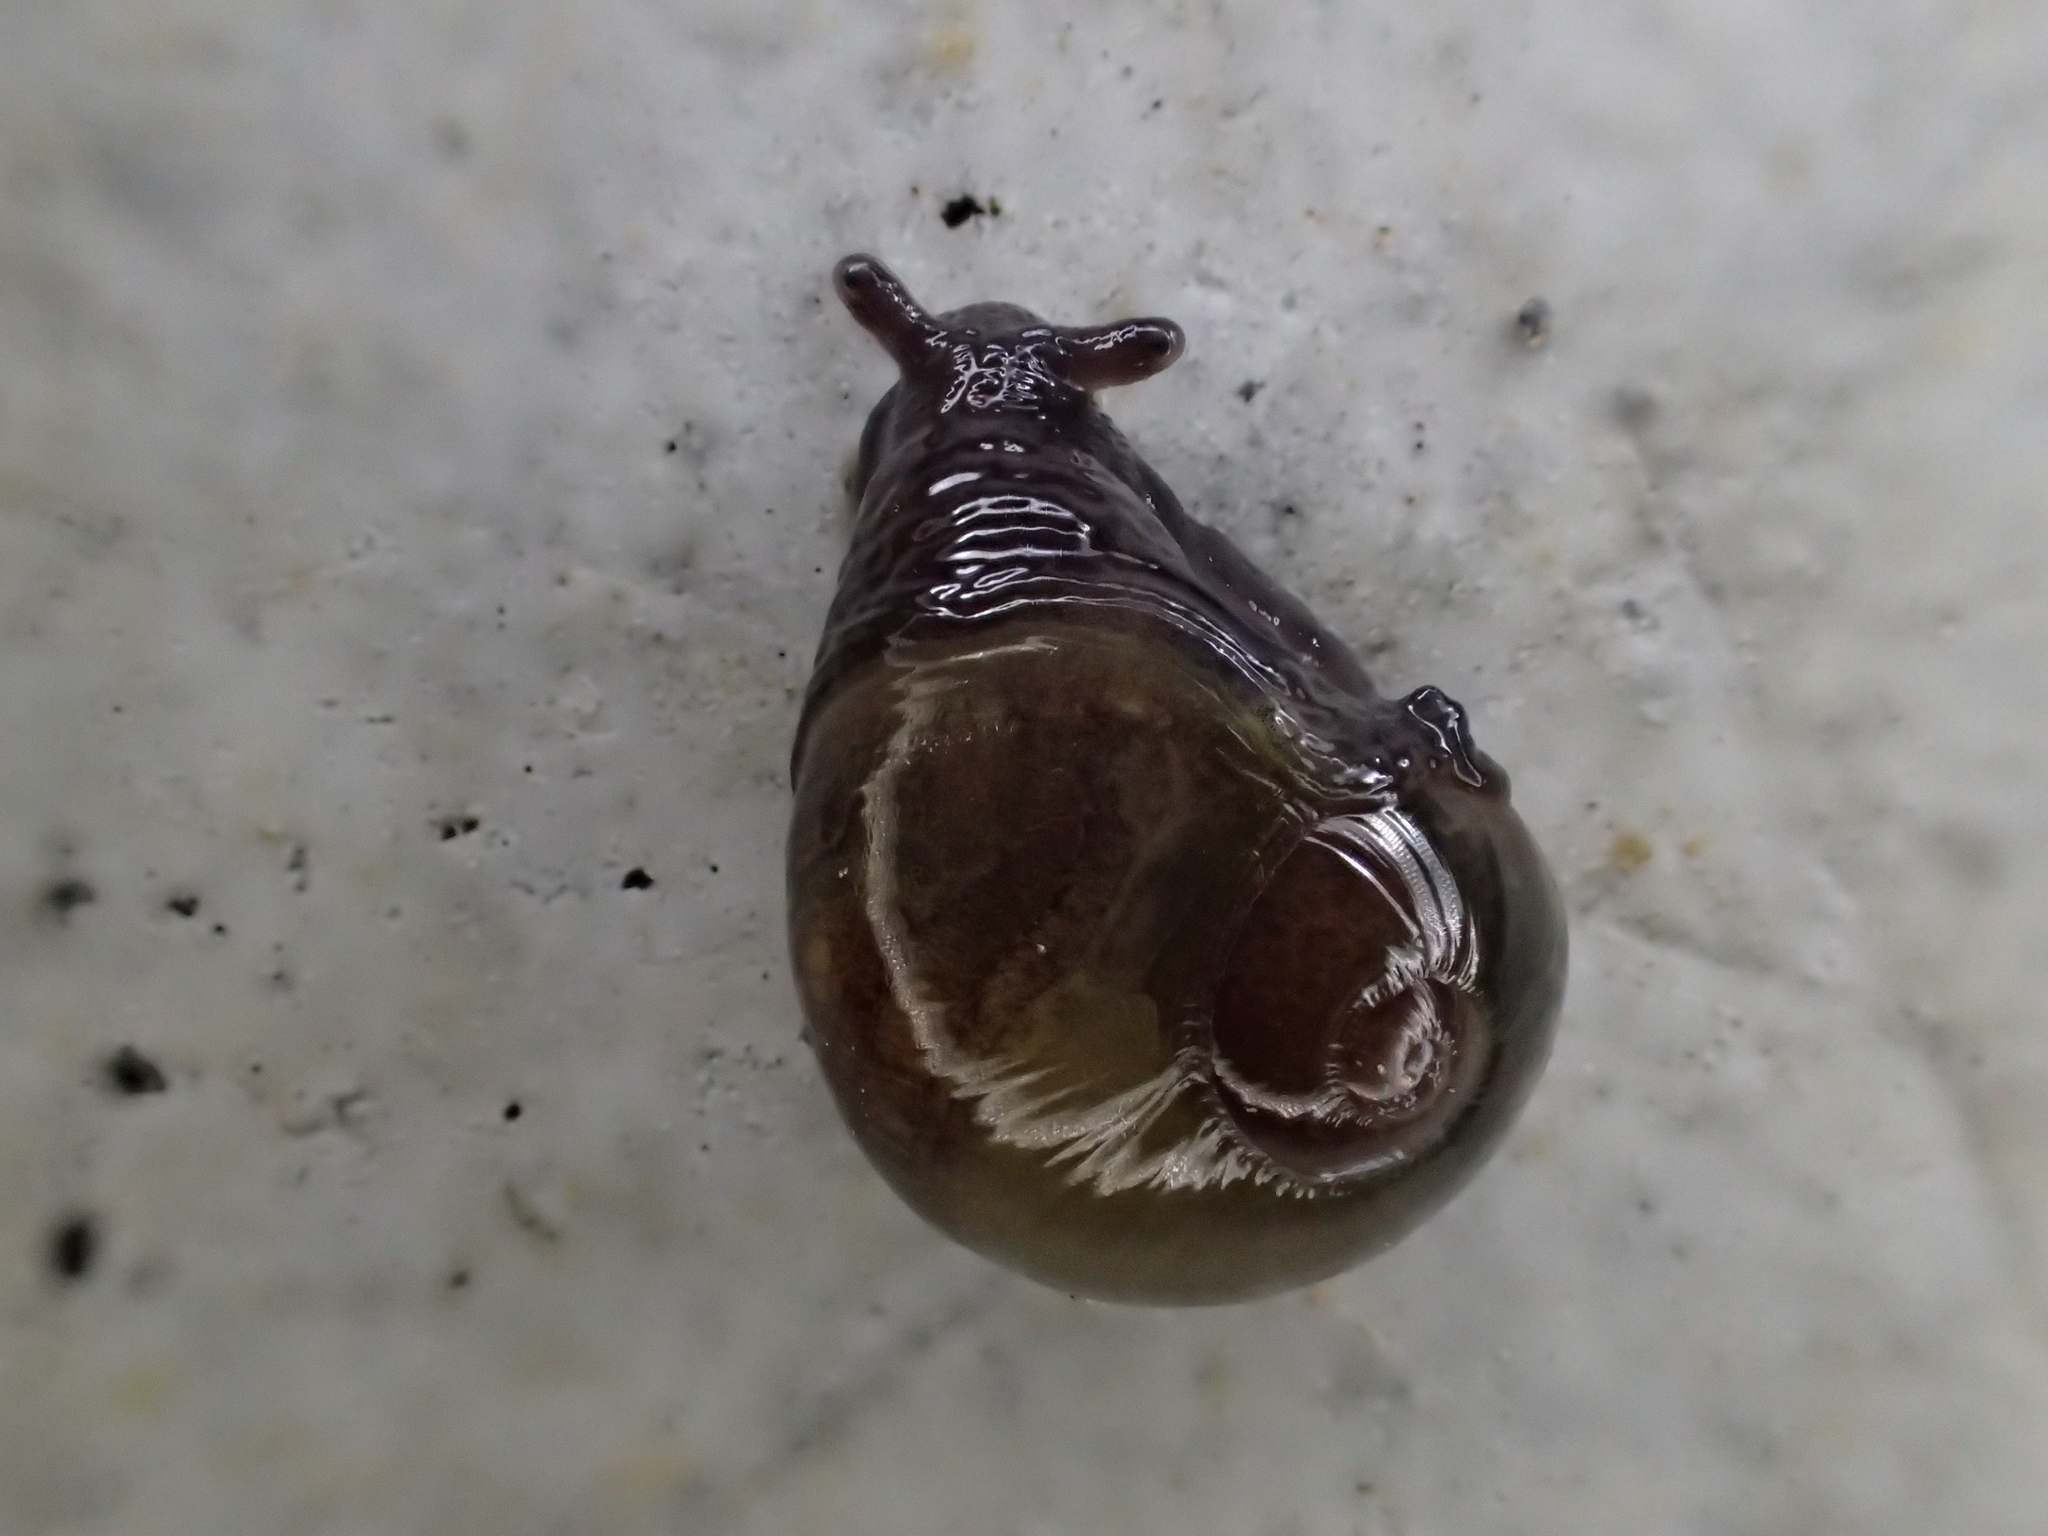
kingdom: Animalia
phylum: Mollusca
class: Gastropoda
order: Stylommatophora
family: Vitrinidae
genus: Vitrina
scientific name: Vitrina pellucida
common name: Pellucid glass snail
